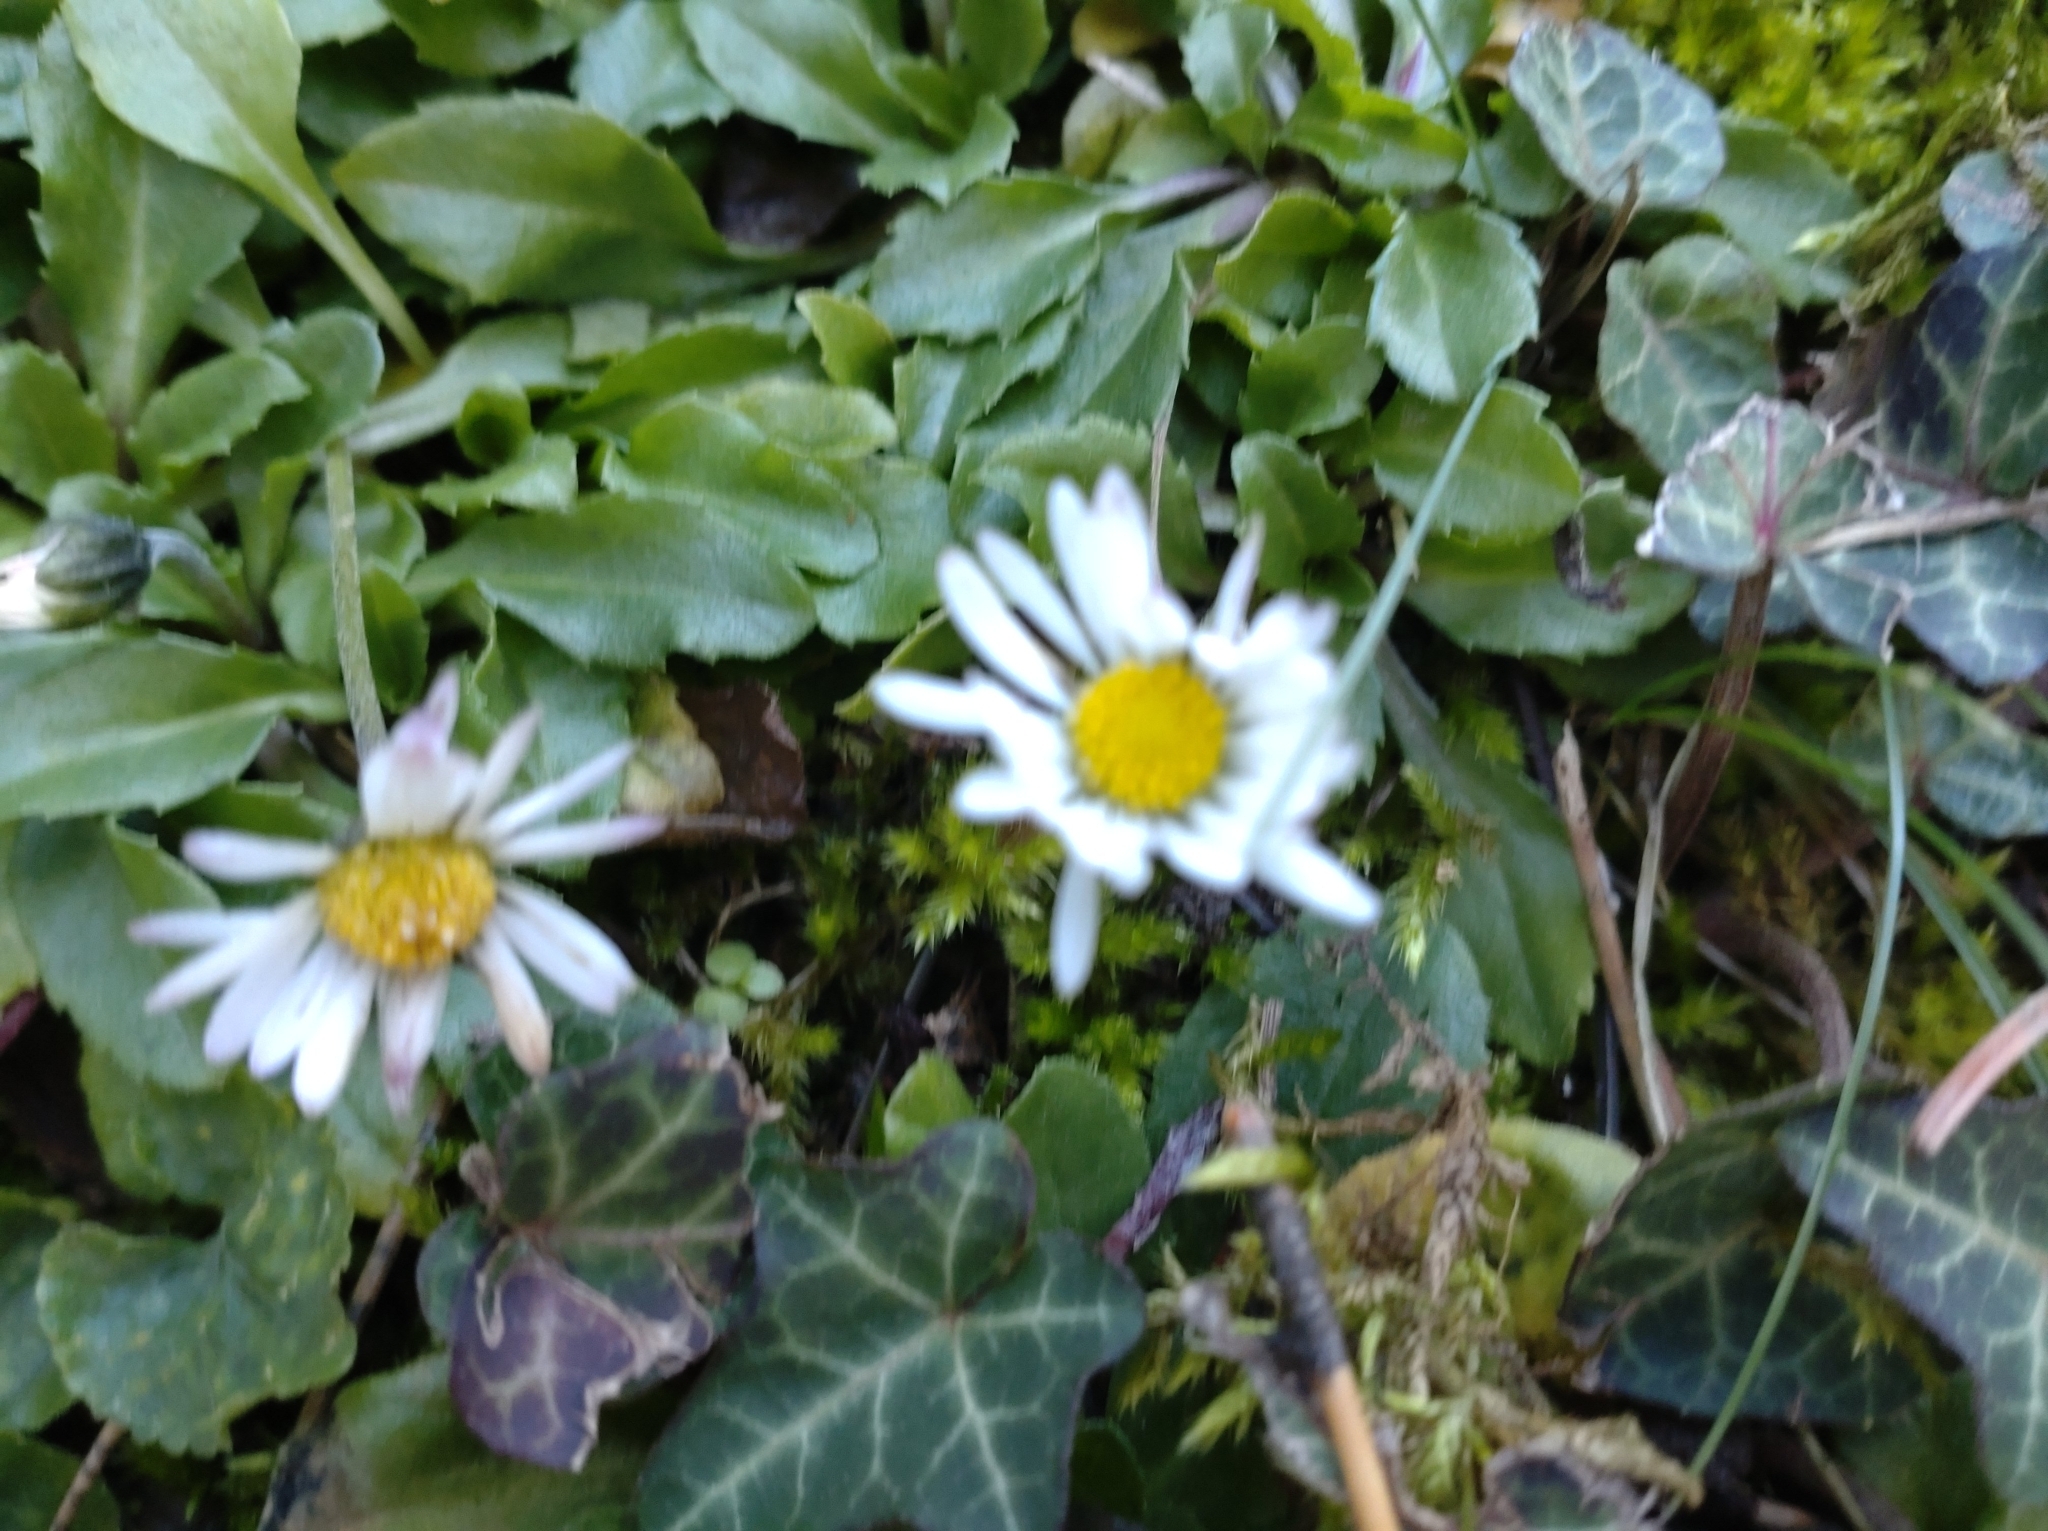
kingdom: Plantae
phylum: Tracheophyta
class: Magnoliopsida
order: Asterales
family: Asteraceae
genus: Bellis
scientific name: Bellis perennis
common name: Lawndaisy
